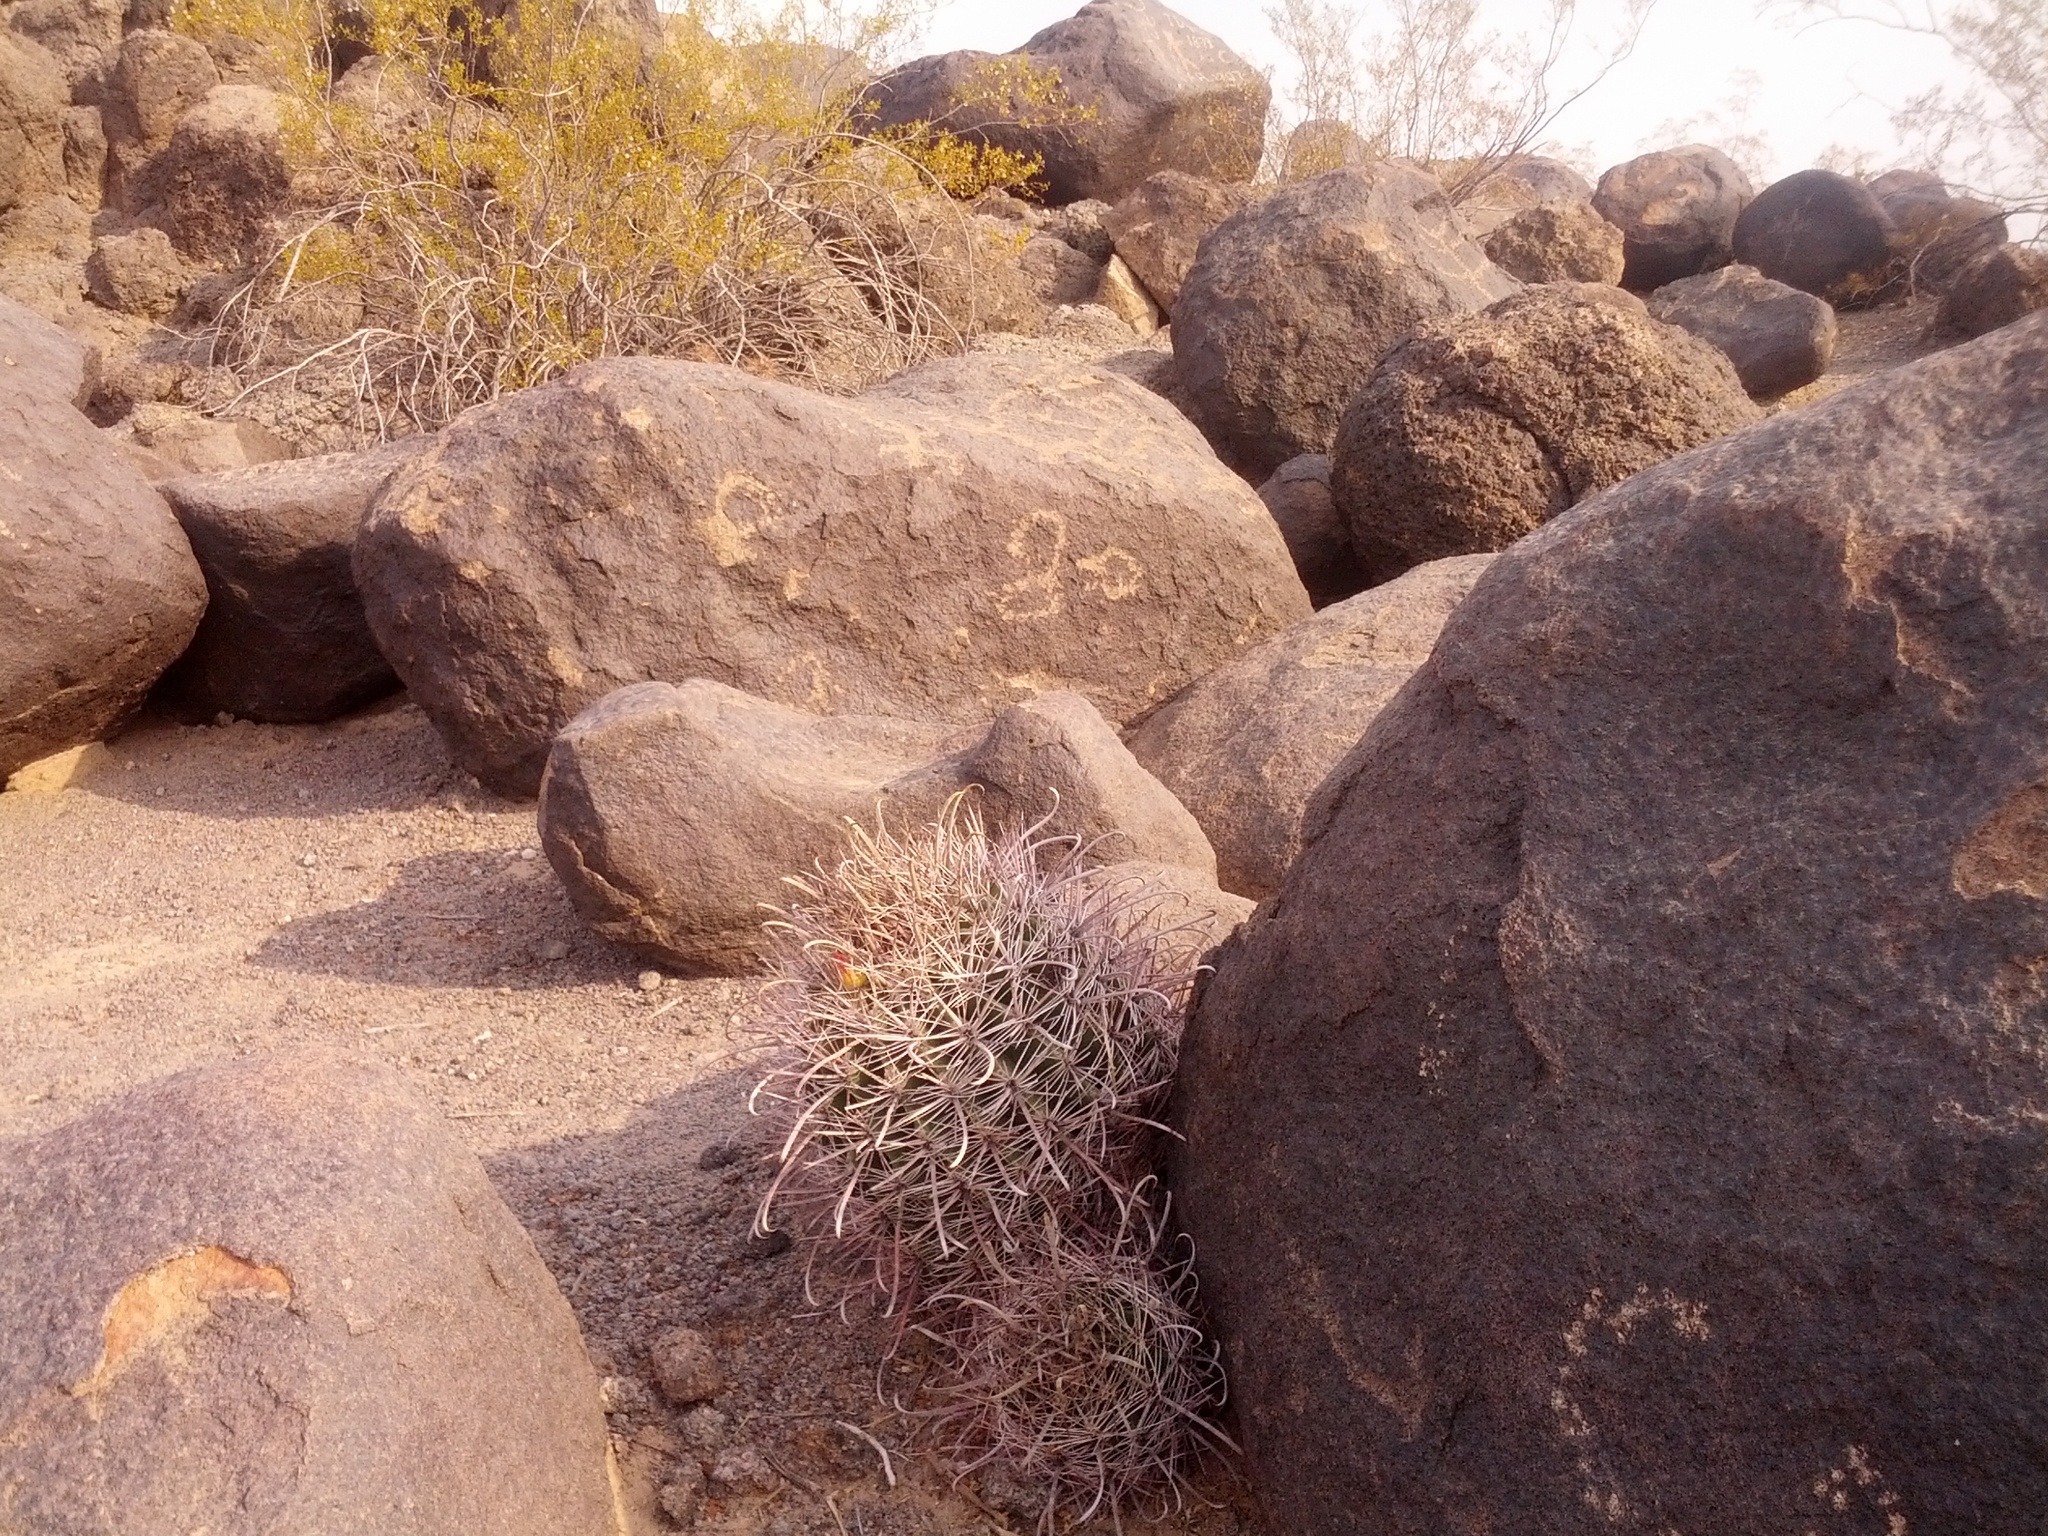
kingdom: Plantae
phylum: Tracheophyta
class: Magnoliopsida
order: Caryophyllales
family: Cactaceae
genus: Ferocactus
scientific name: Ferocactus cylindraceus
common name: California barrel cactus
